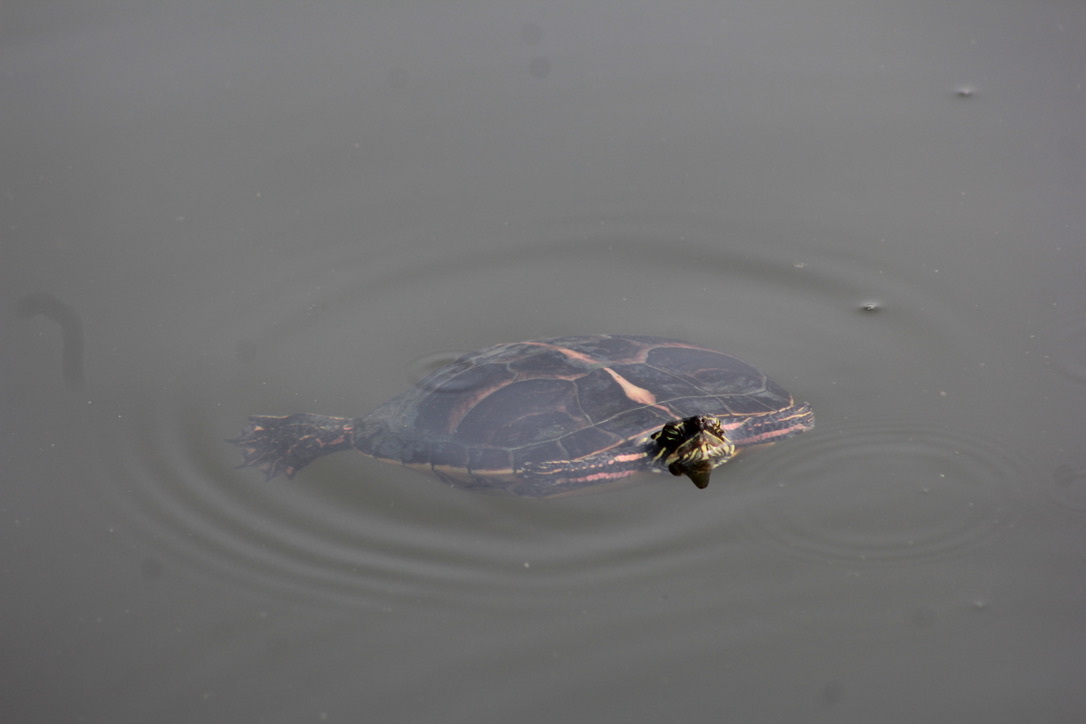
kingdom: Animalia
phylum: Chordata
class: Testudines
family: Emydidae
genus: Chrysemys
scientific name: Chrysemys dorsalis
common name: Southern painted turtle
